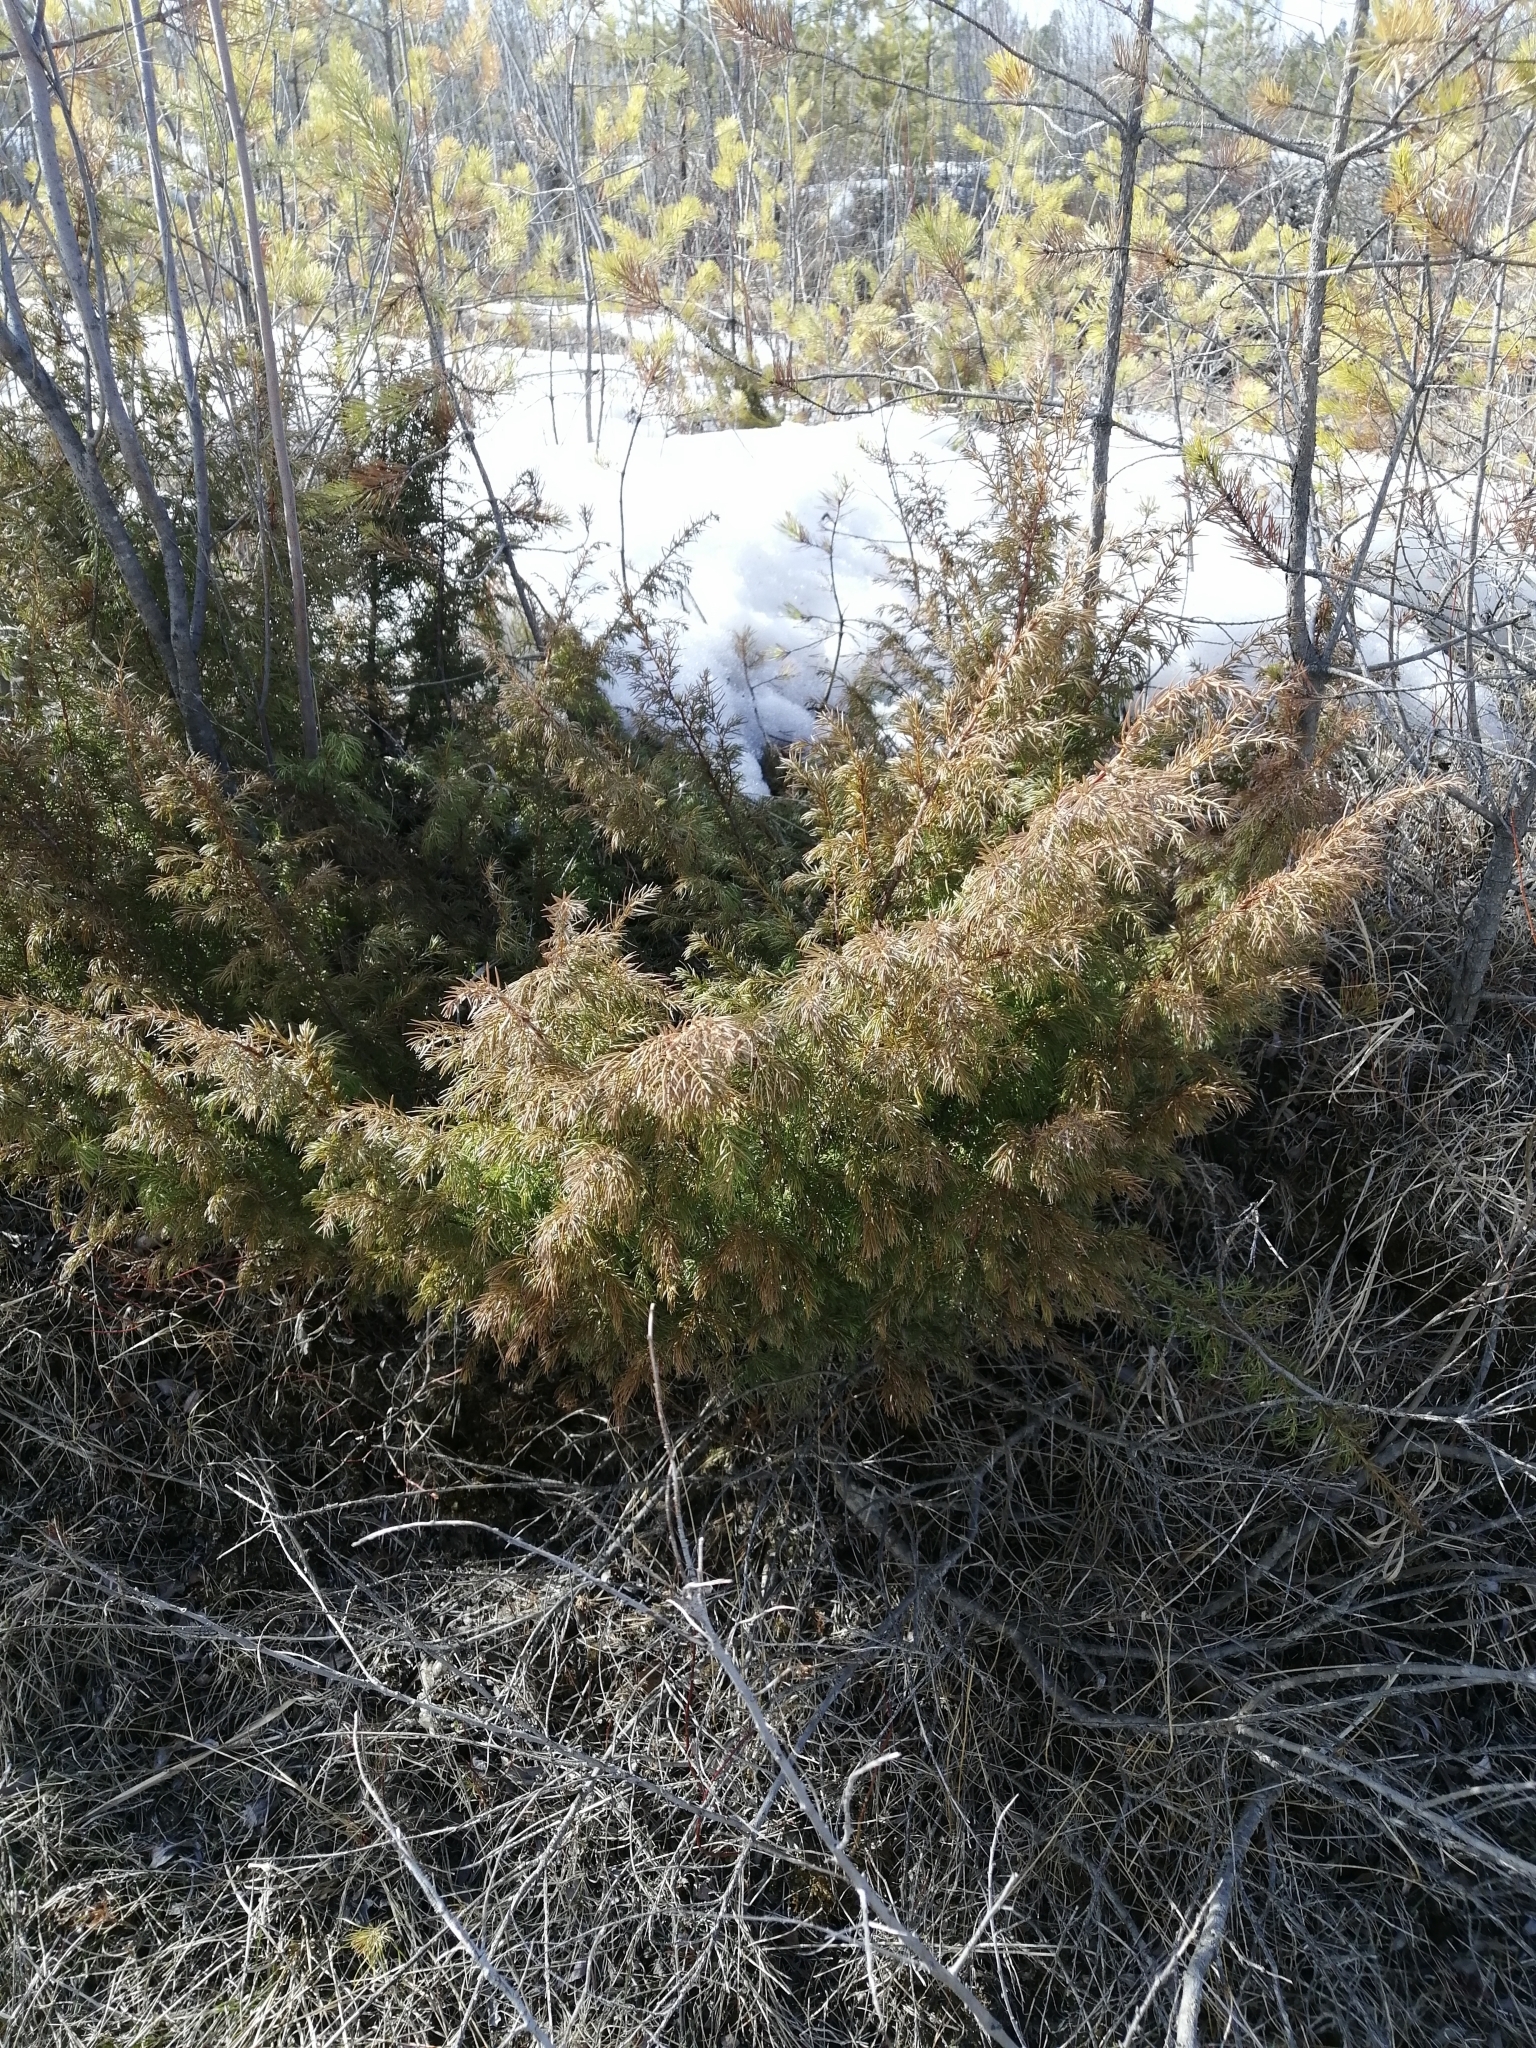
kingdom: Plantae
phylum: Tracheophyta
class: Pinopsida
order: Pinales
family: Cupressaceae
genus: Juniperus
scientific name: Juniperus communis
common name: Common juniper
